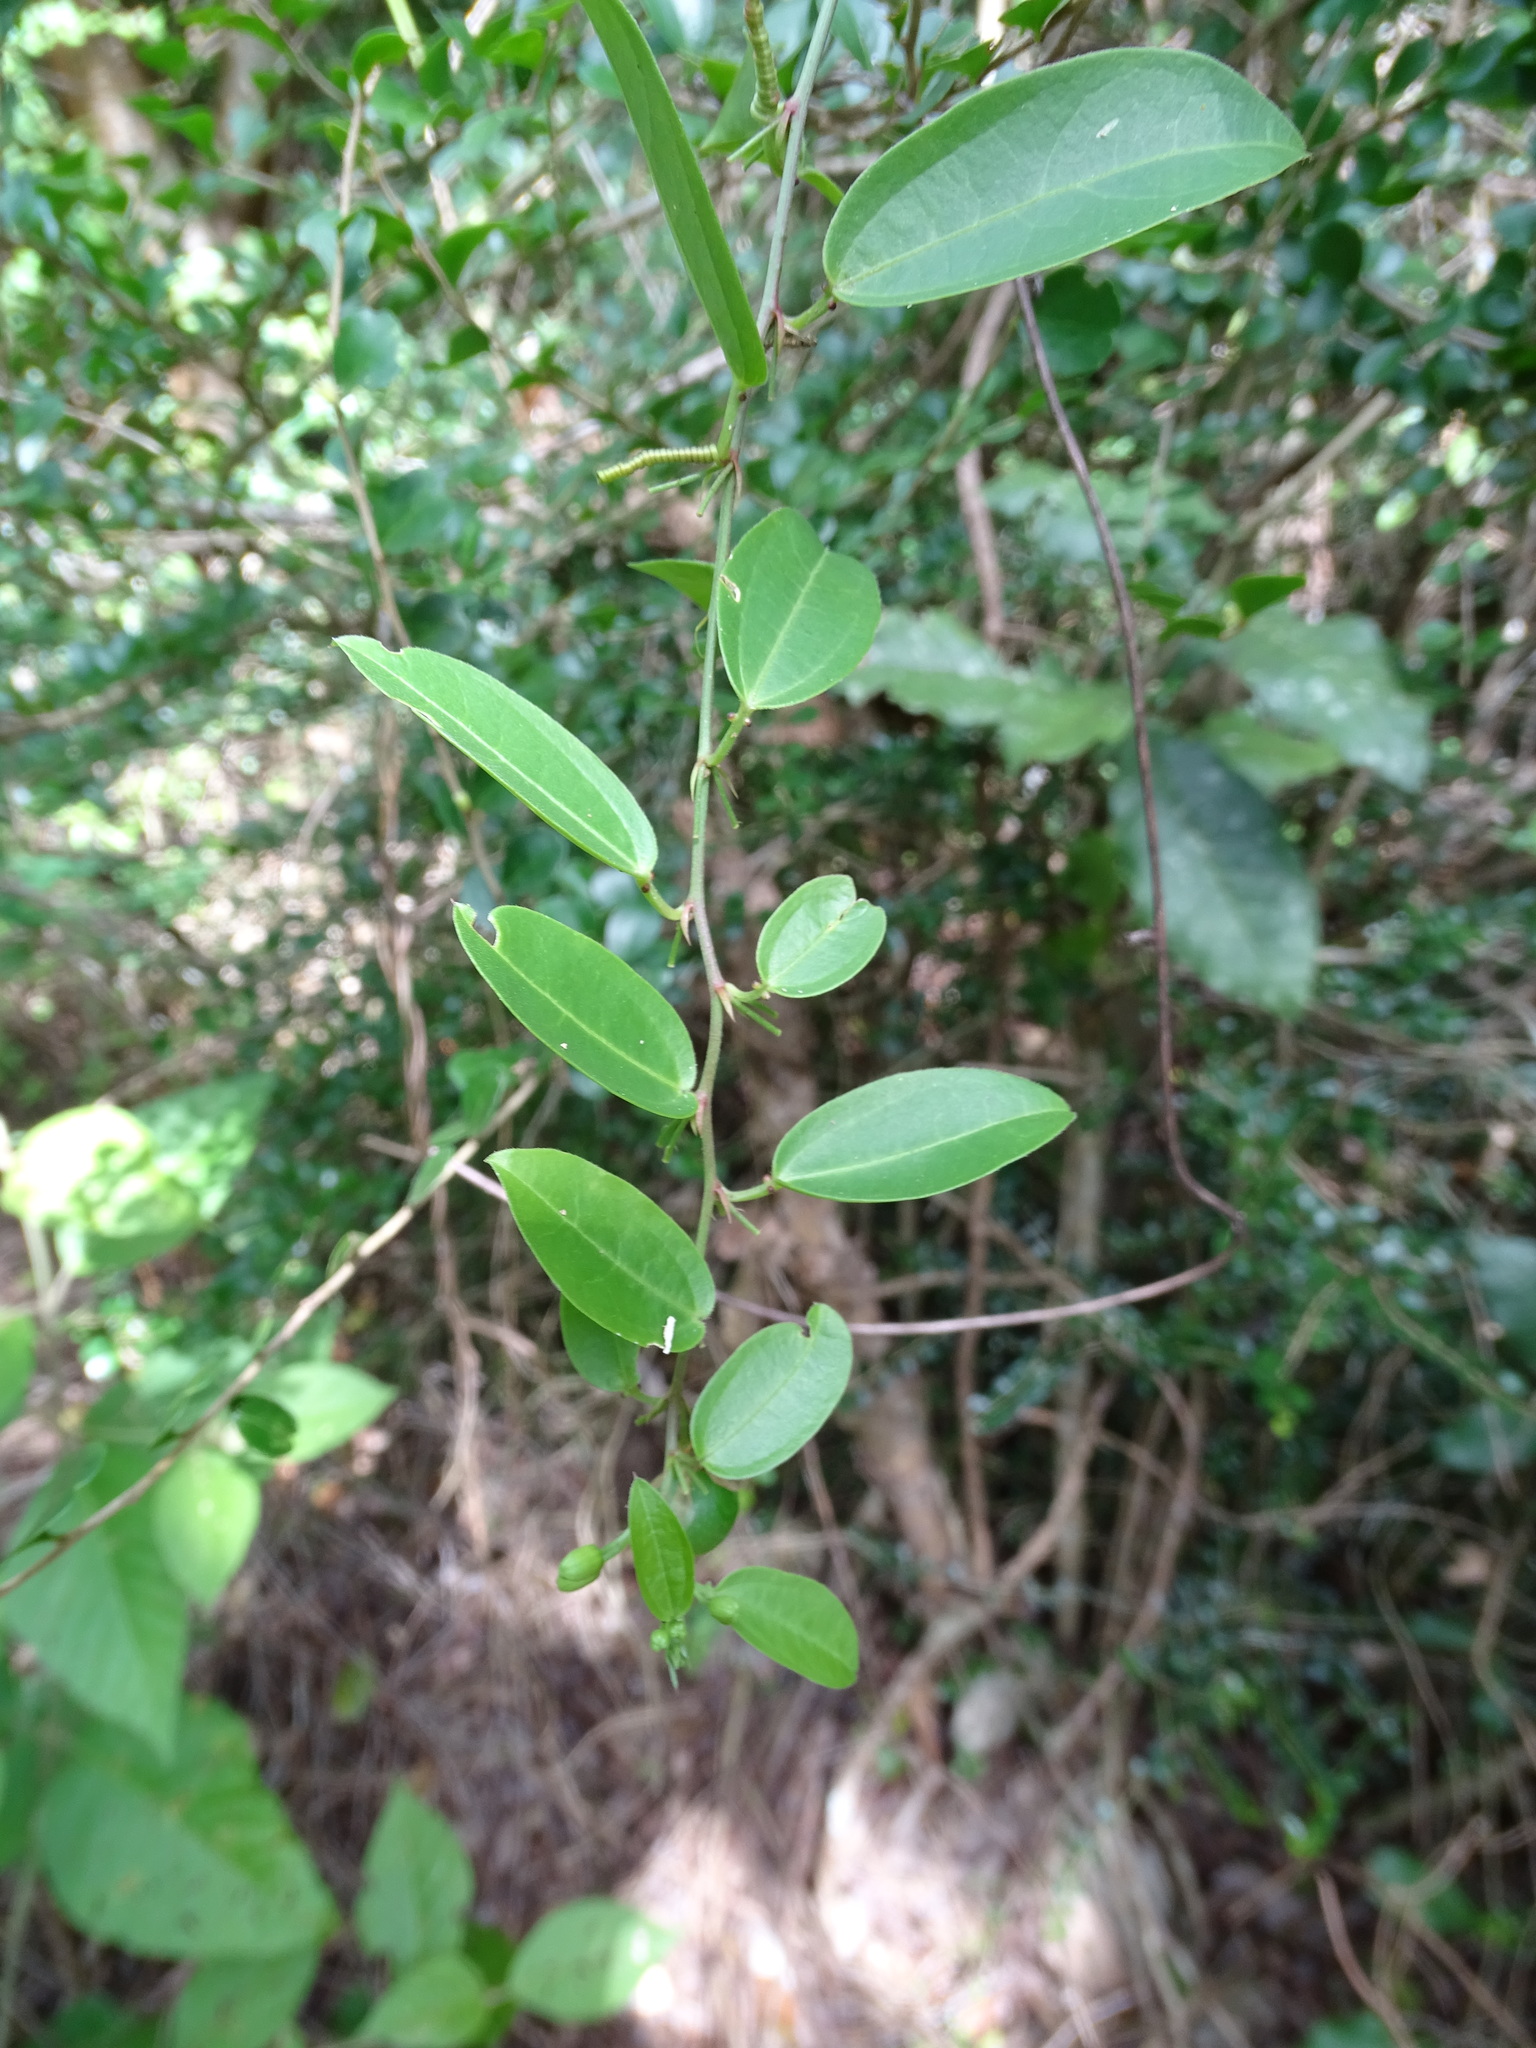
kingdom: Plantae
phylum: Tracheophyta
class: Magnoliopsida
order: Malpighiales
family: Passifloraceae
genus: Passiflora
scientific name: Passiflora pallida
